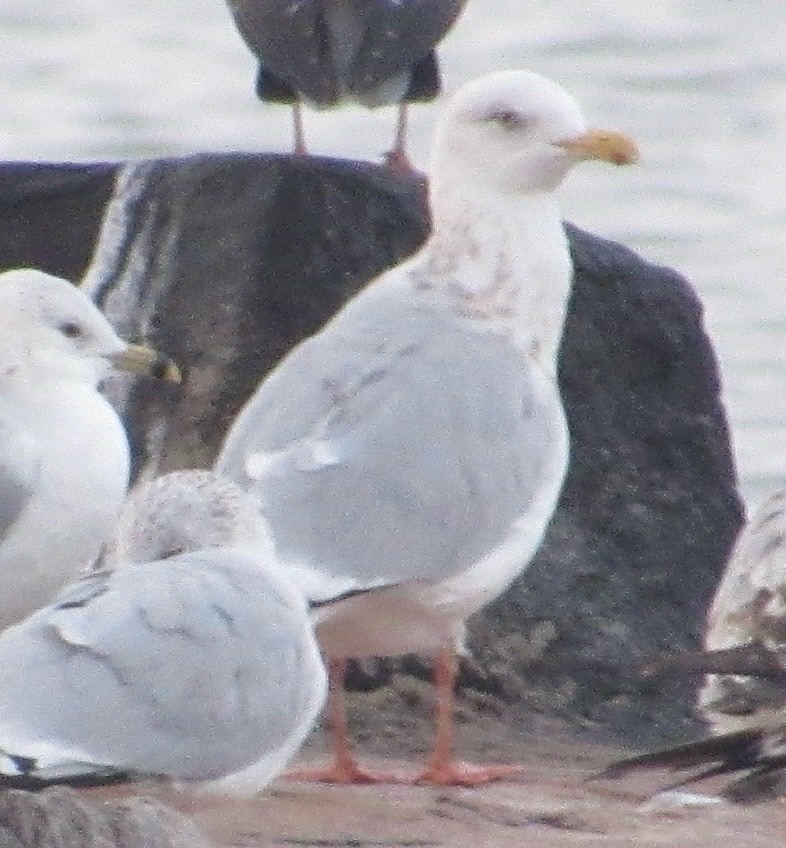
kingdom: Animalia
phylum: Chordata
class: Aves
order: Charadriiformes
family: Laridae
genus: Larus
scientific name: Larus argentatus
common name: Herring gull
